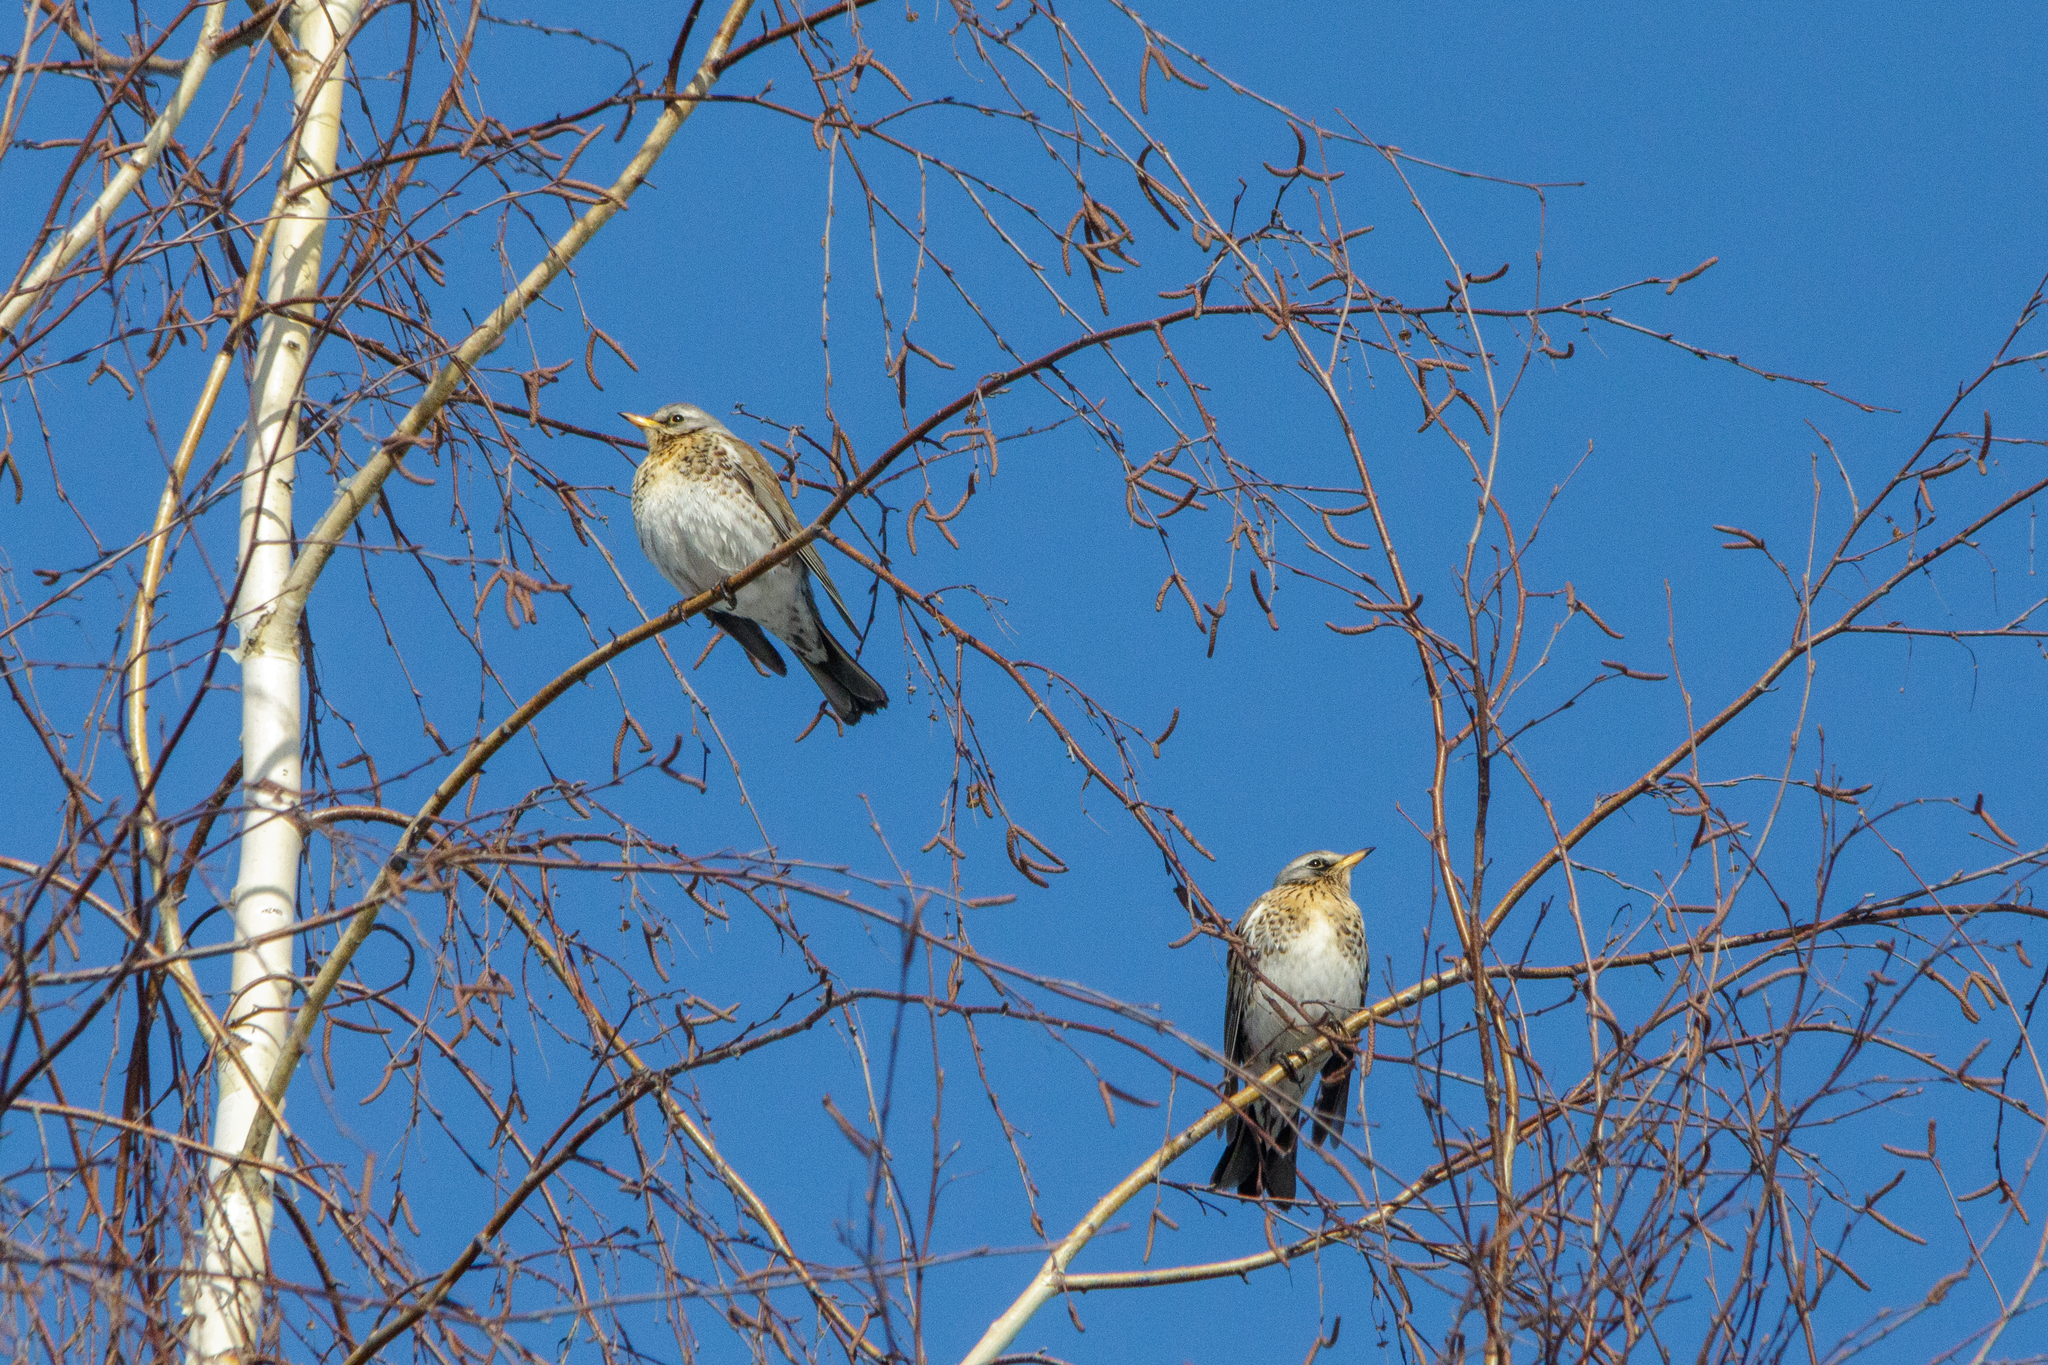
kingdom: Animalia
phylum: Chordata
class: Aves
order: Passeriformes
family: Turdidae
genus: Turdus
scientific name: Turdus pilaris
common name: Fieldfare
